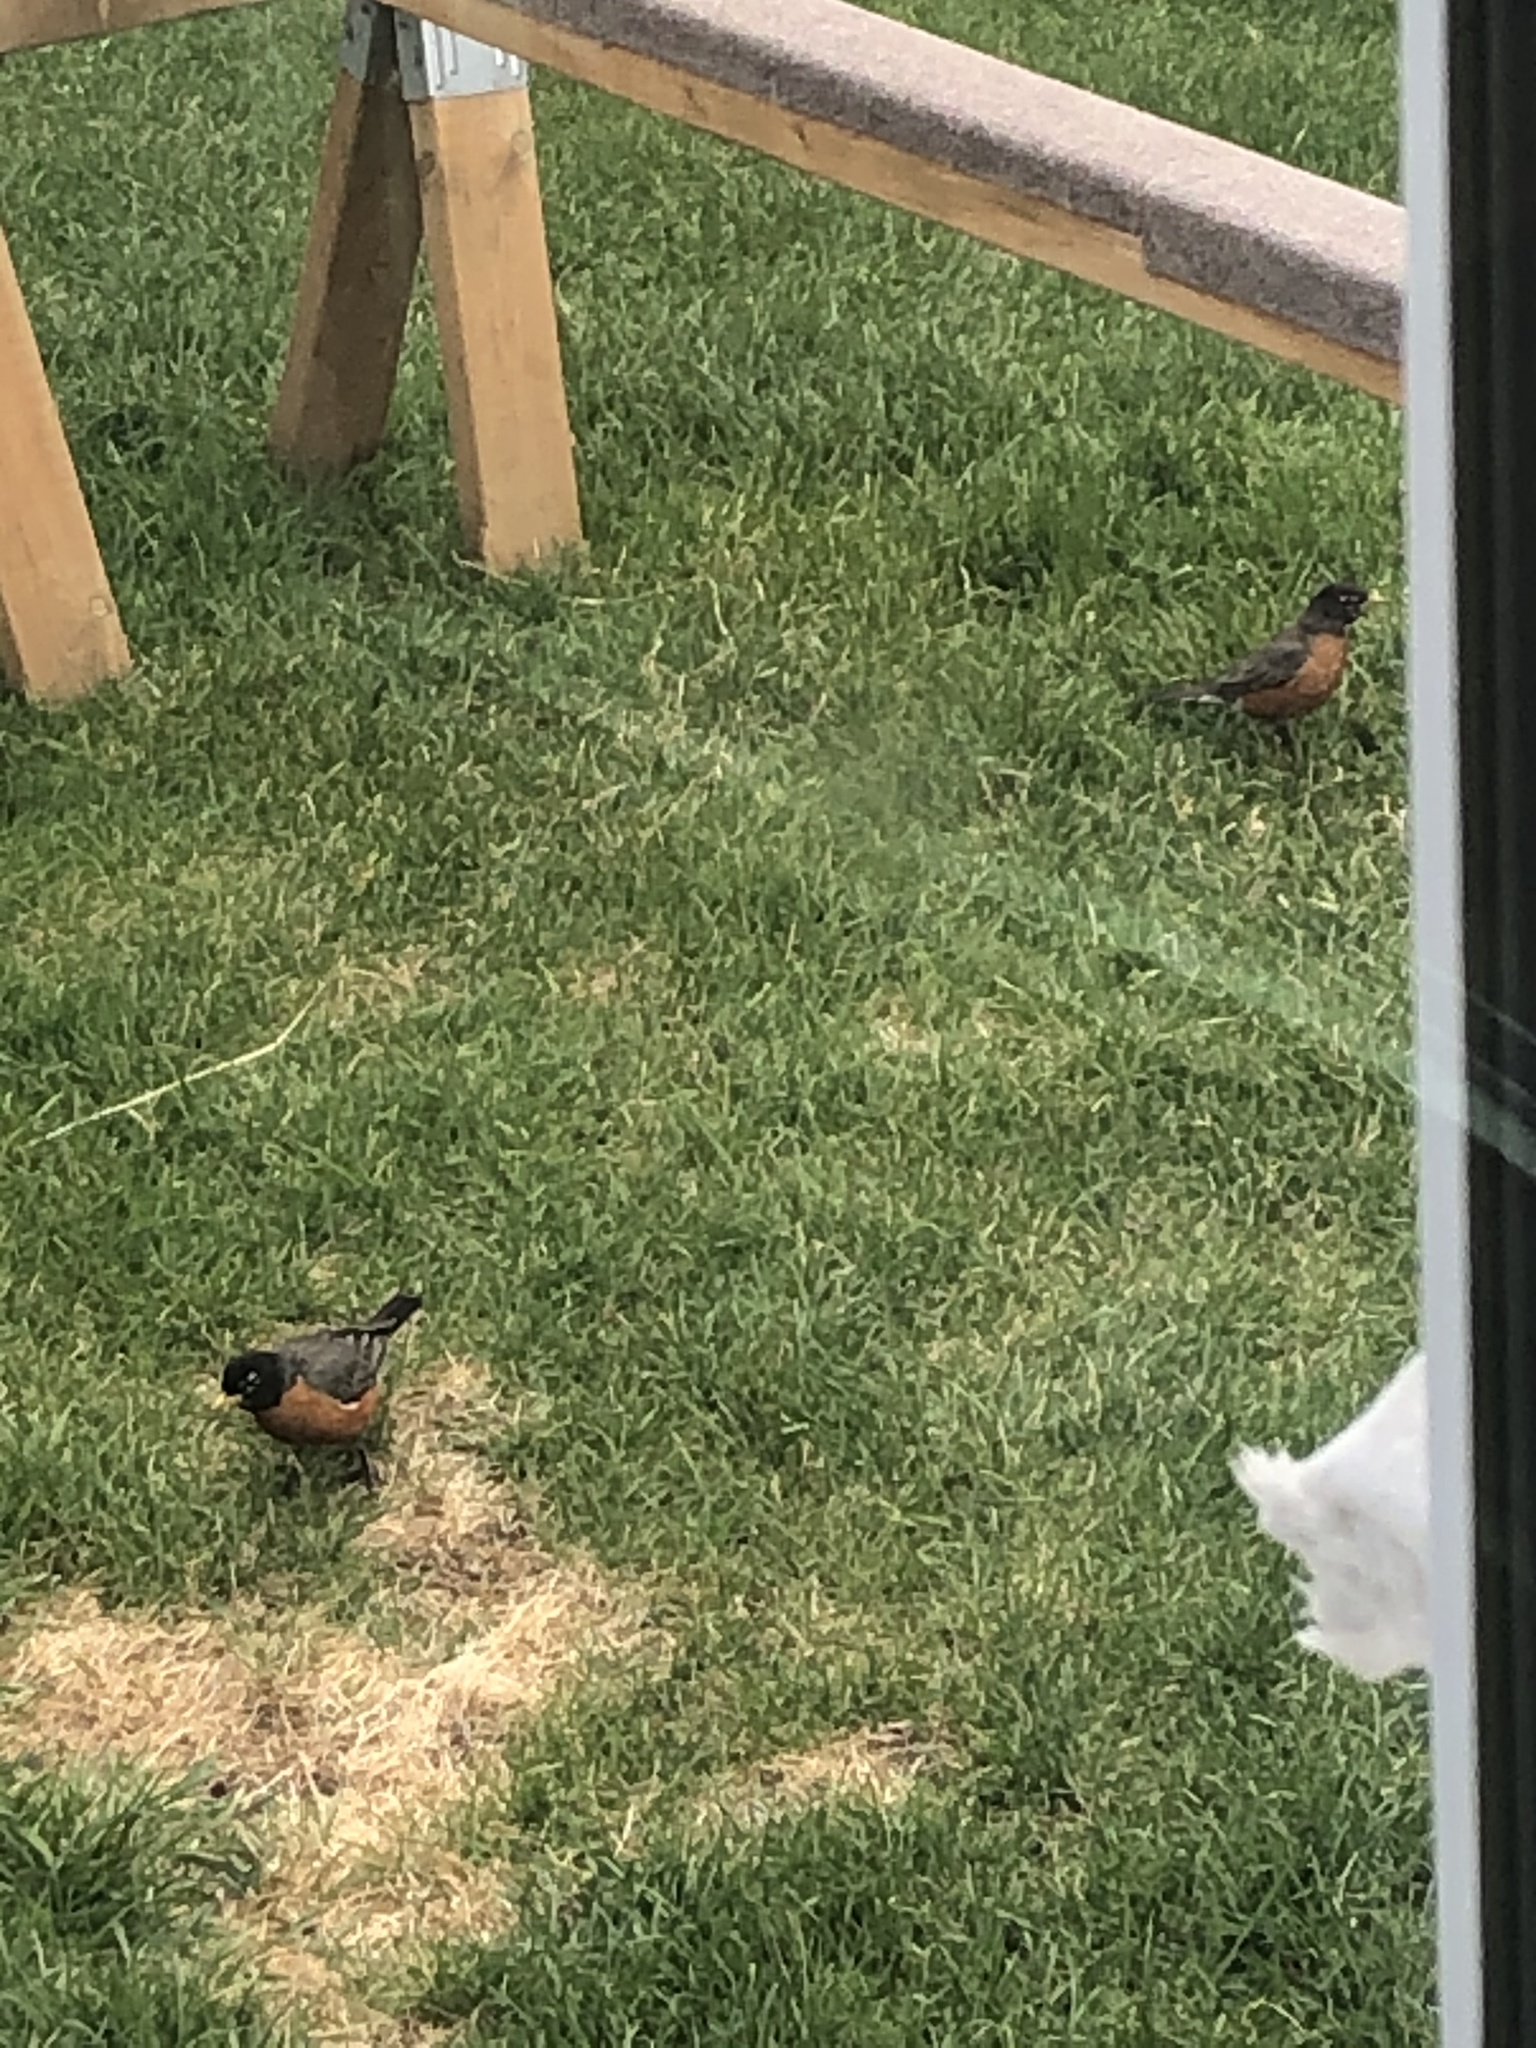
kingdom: Animalia
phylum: Chordata
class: Aves
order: Passeriformes
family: Turdidae
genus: Turdus
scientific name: Turdus migratorius
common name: American robin
